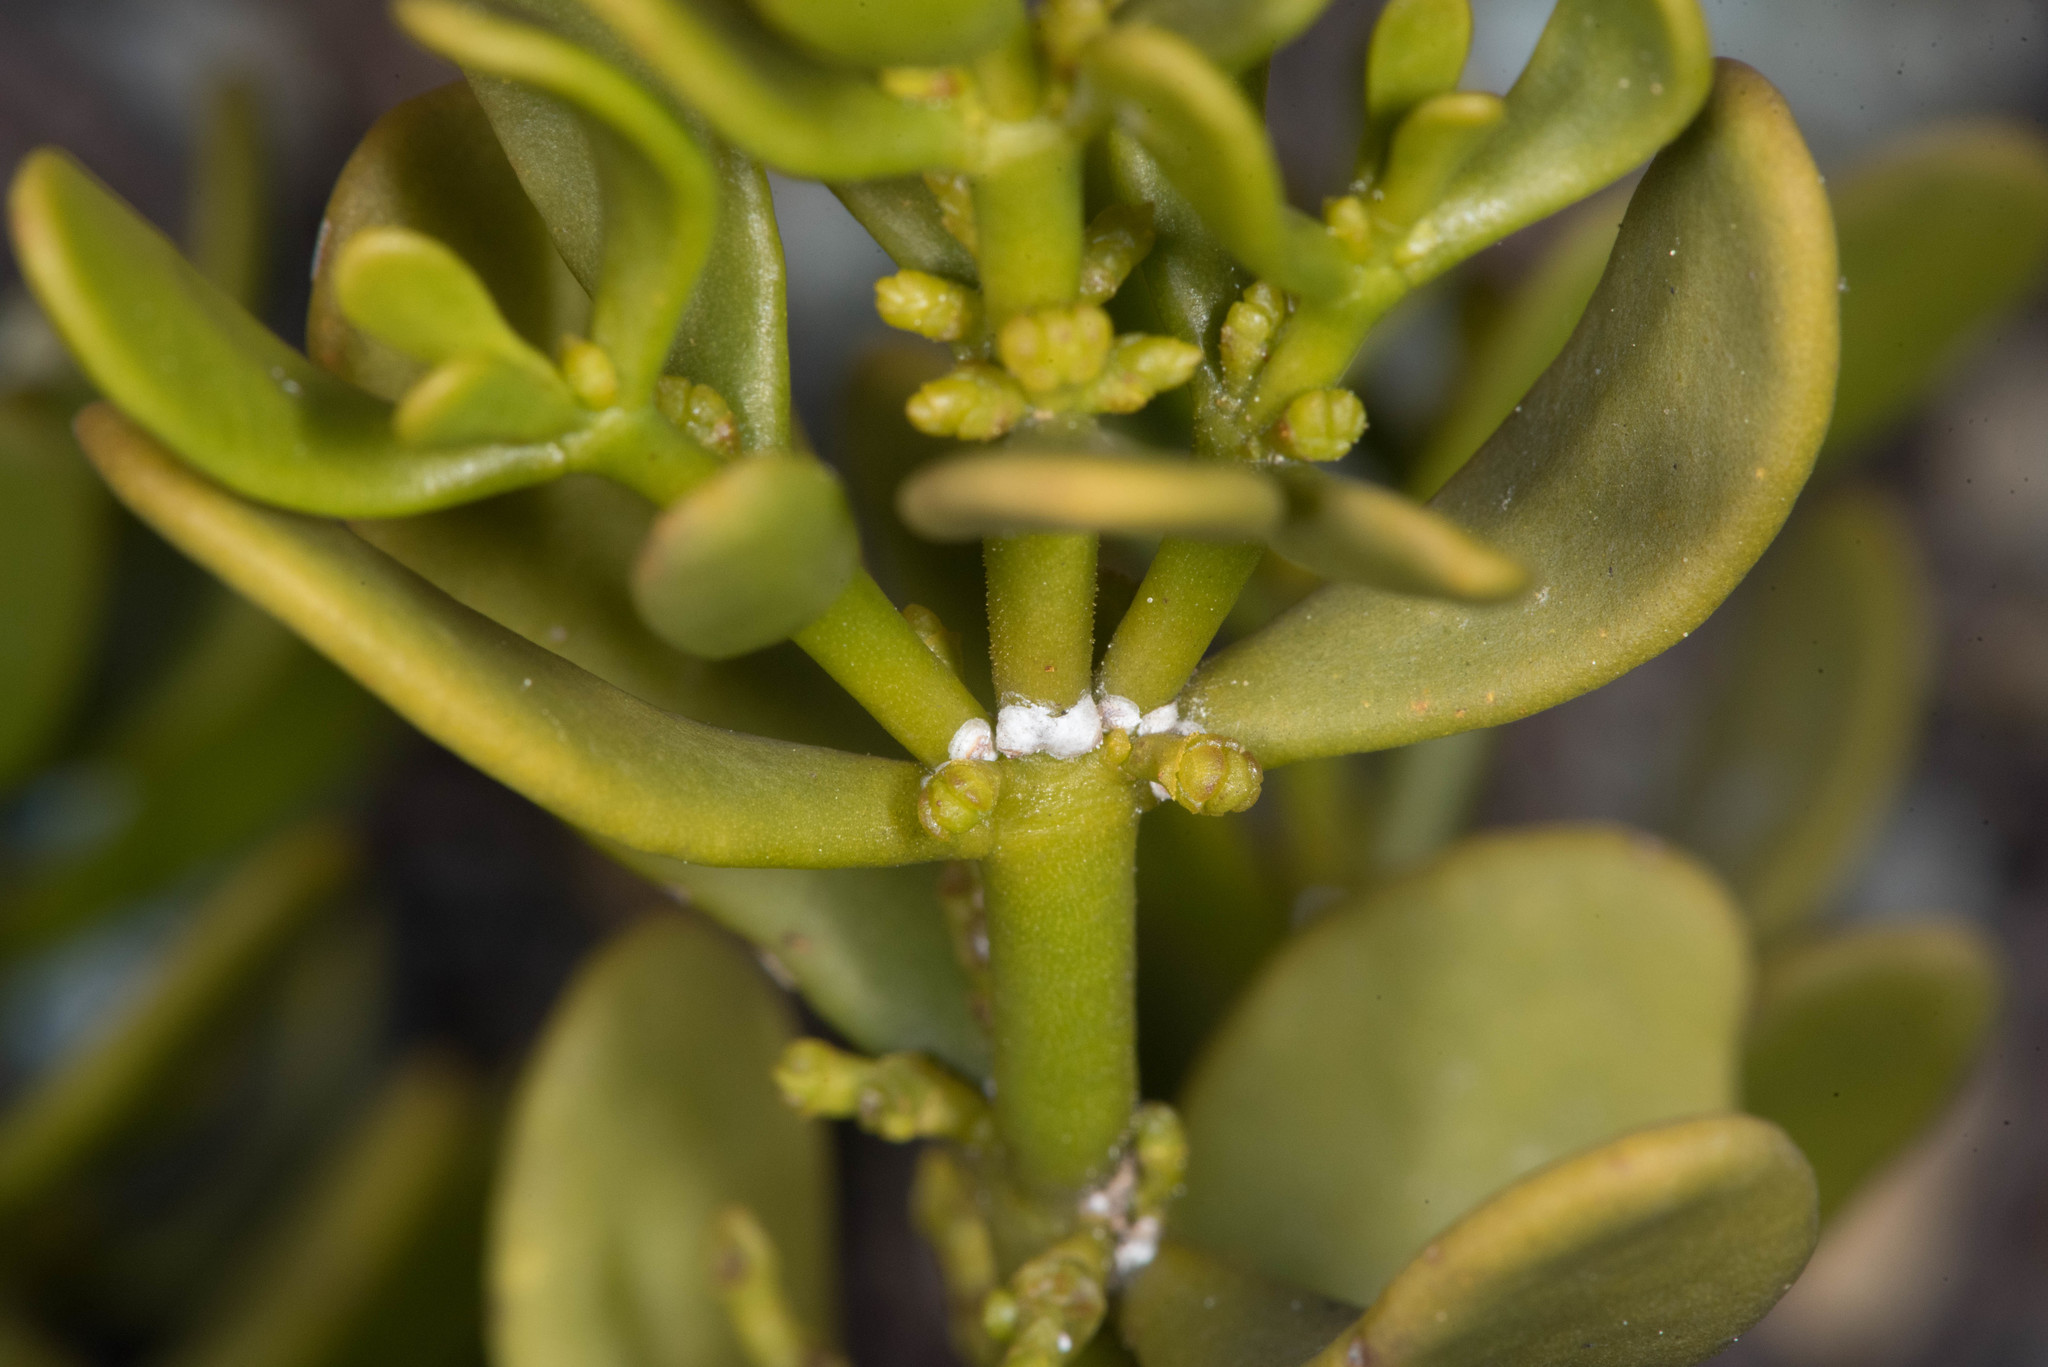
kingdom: Plantae
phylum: Tracheophyta
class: Magnoliopsida
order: Santalales
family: Viscaceae
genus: Phoradendron
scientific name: Phoradendron bolleanum
